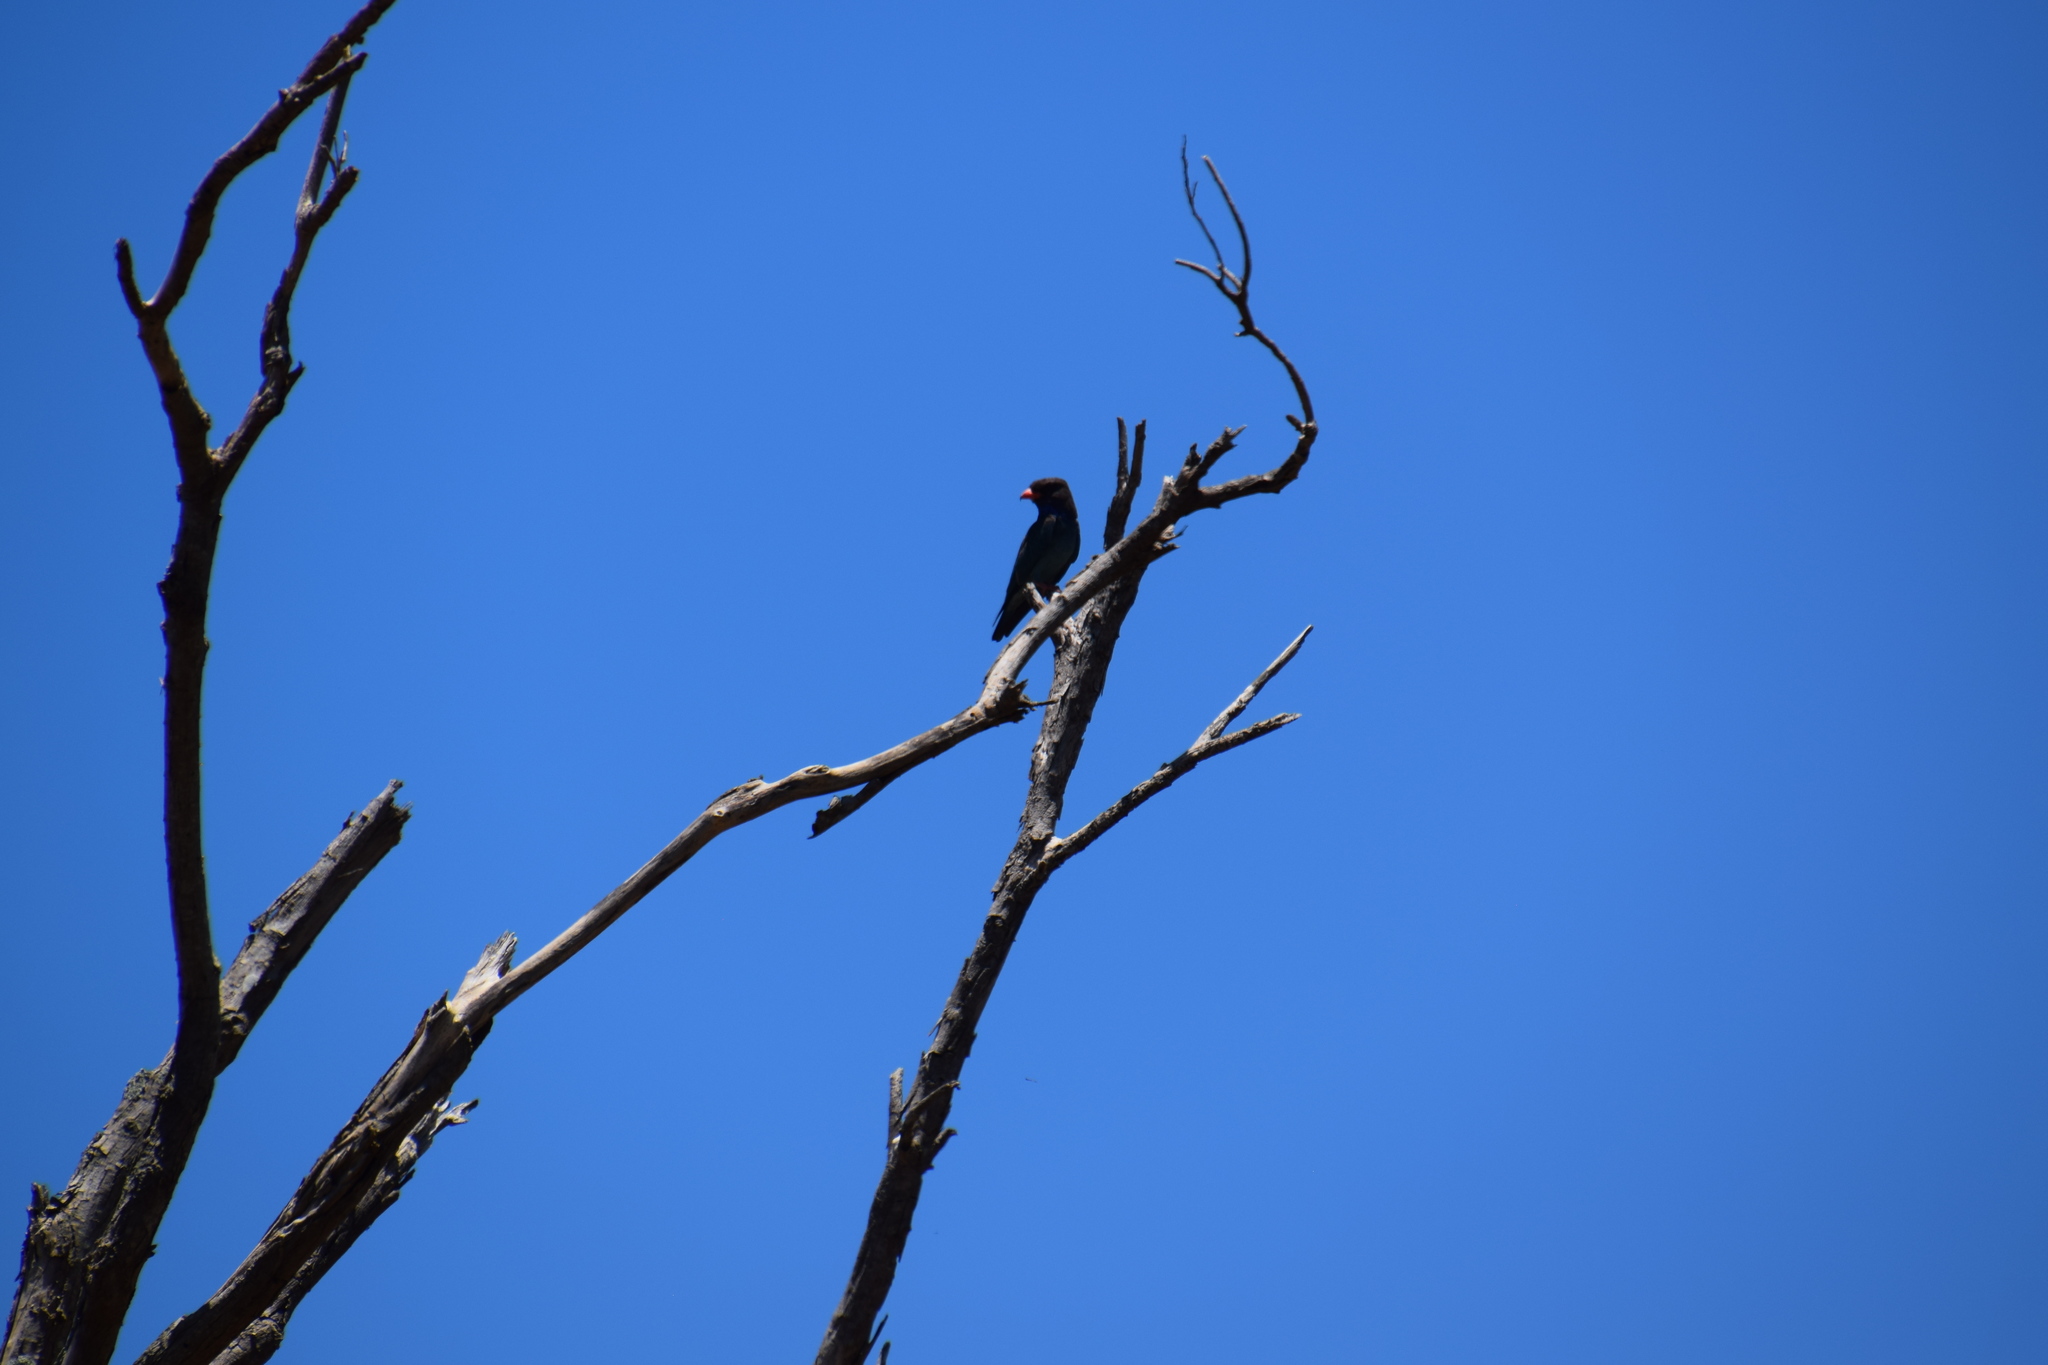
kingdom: Animalia
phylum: Chordata
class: Aves
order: Coraciiformes
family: Coraciidae
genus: Eurystomus
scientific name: Eurystomus orientalis
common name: Oriental dollarbird
